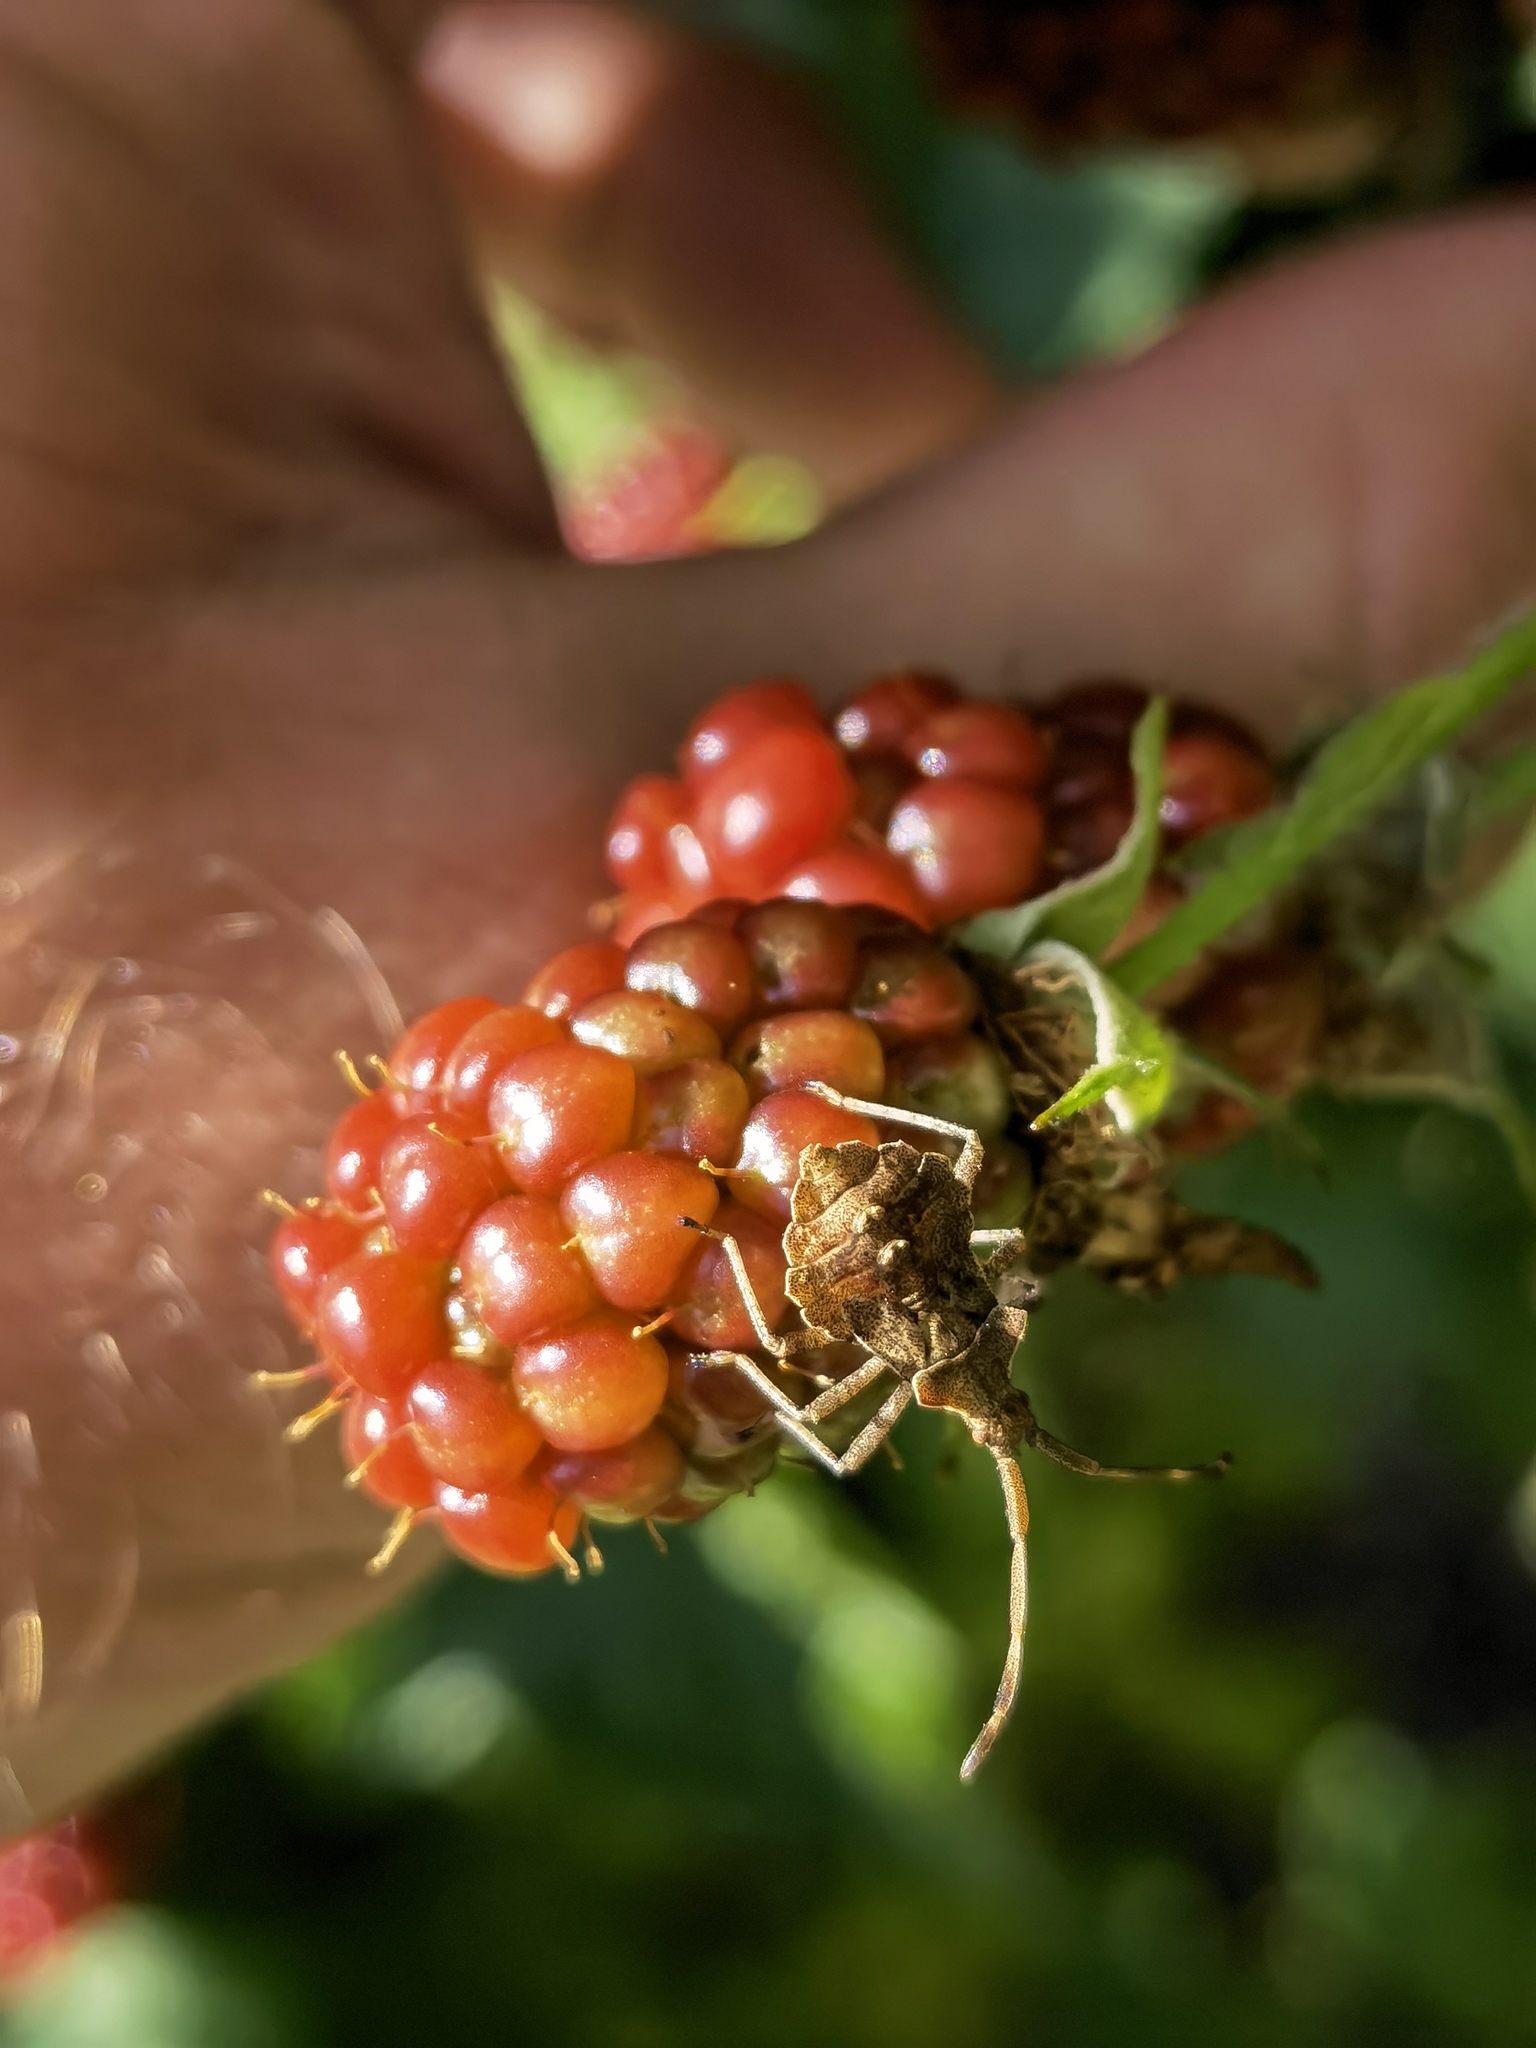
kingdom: Animalia
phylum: Arthropoda
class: Insecta
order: Hemiptera
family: Coreidae
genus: Coreus
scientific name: Coreus marginatus
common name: Dock bug
